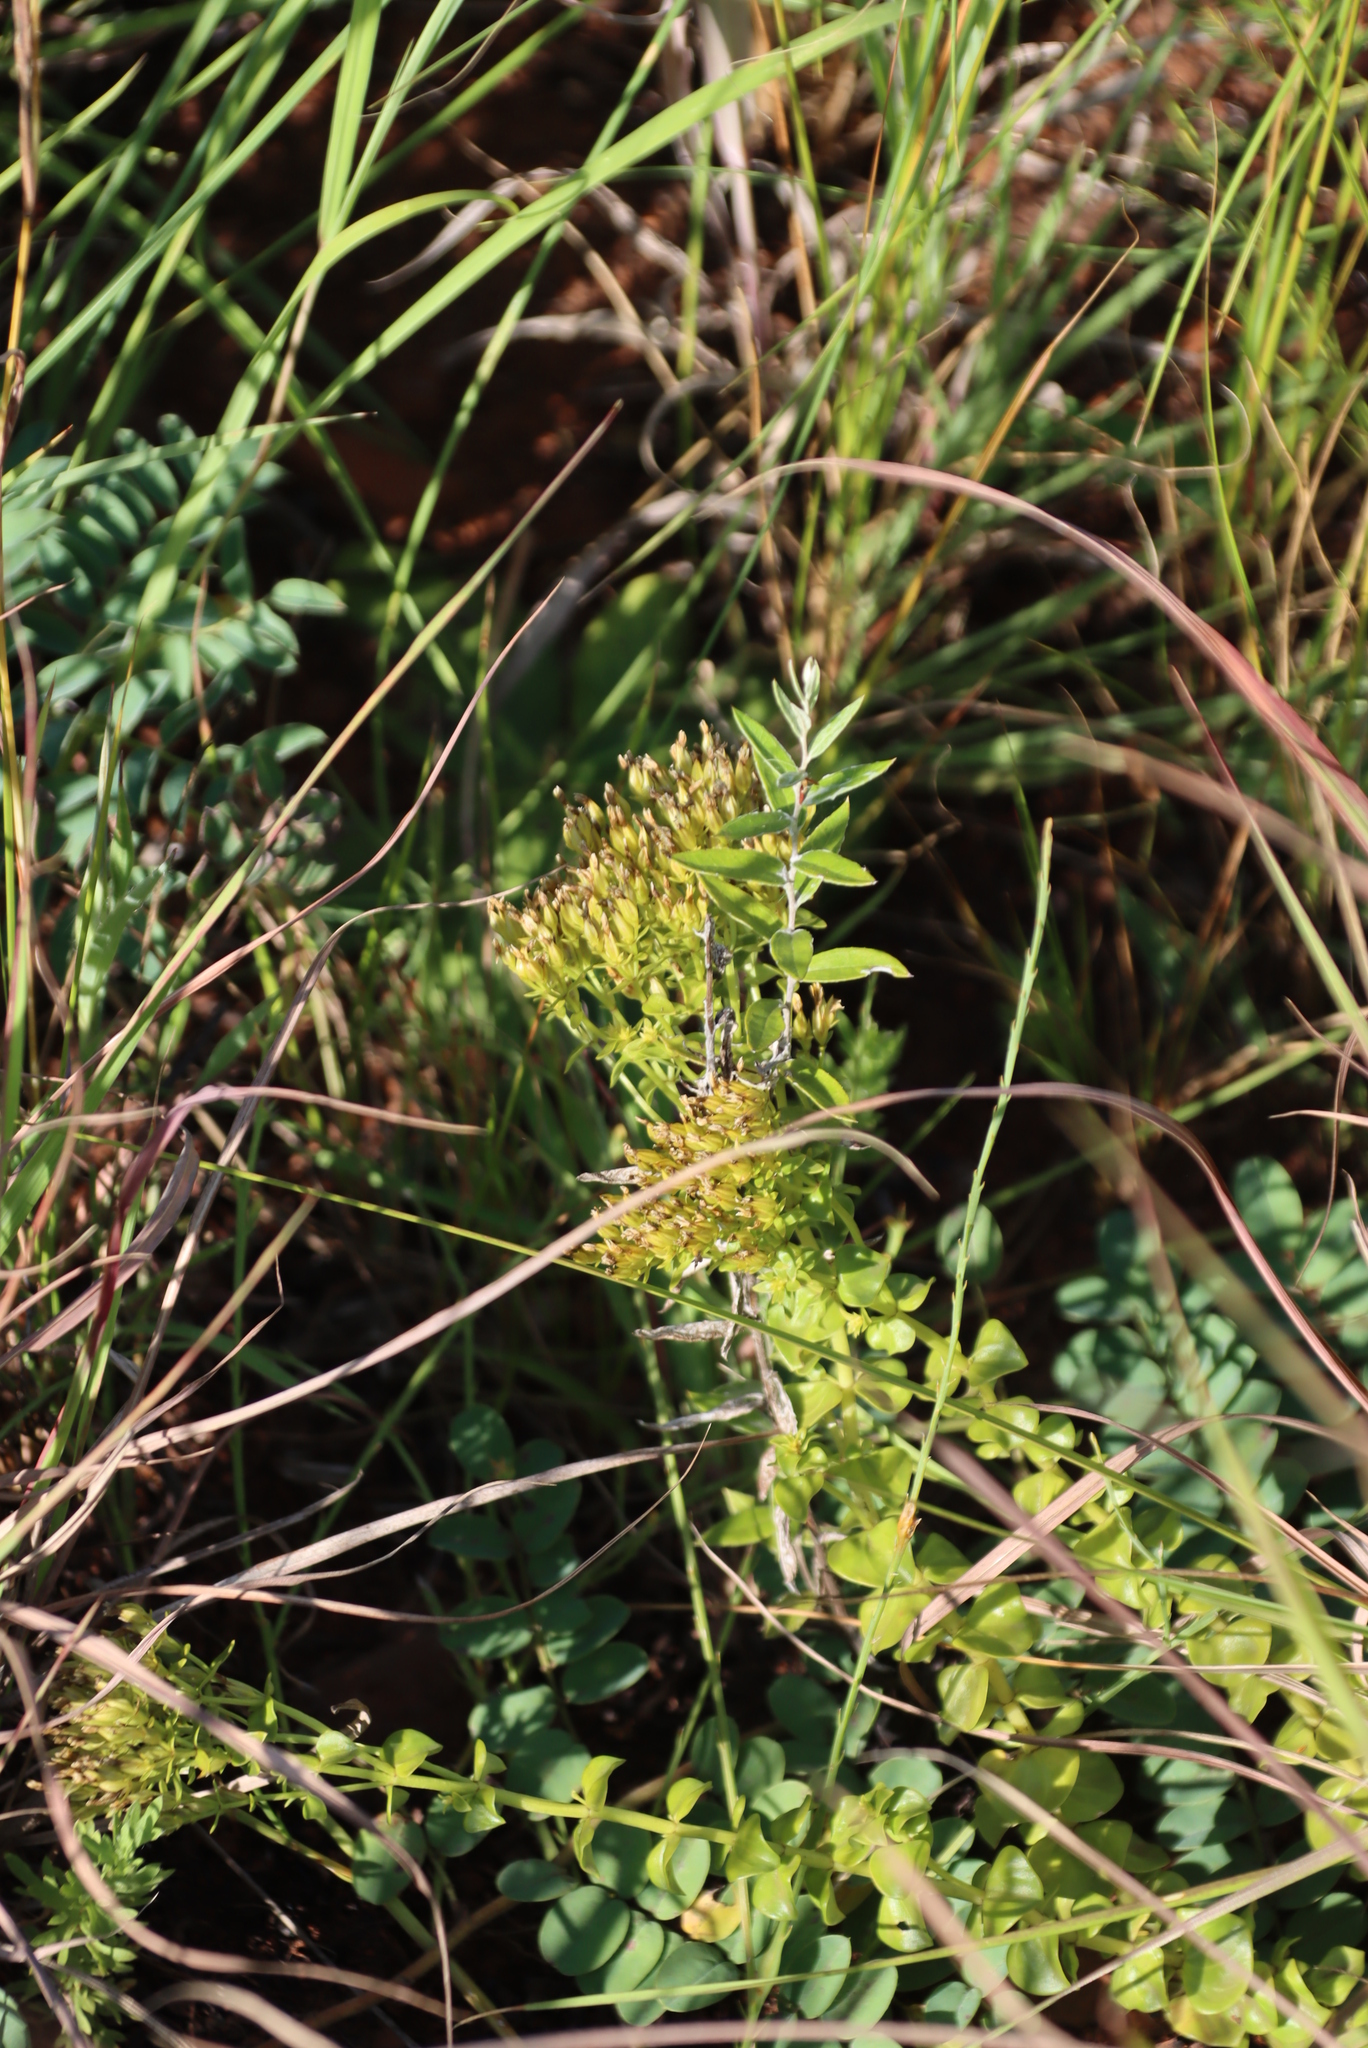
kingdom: Plantae
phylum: Tracheophyta
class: Magnoliopsida
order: Gentianales
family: Gentianaceae
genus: Sebaea
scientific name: Sebaea sedoides
